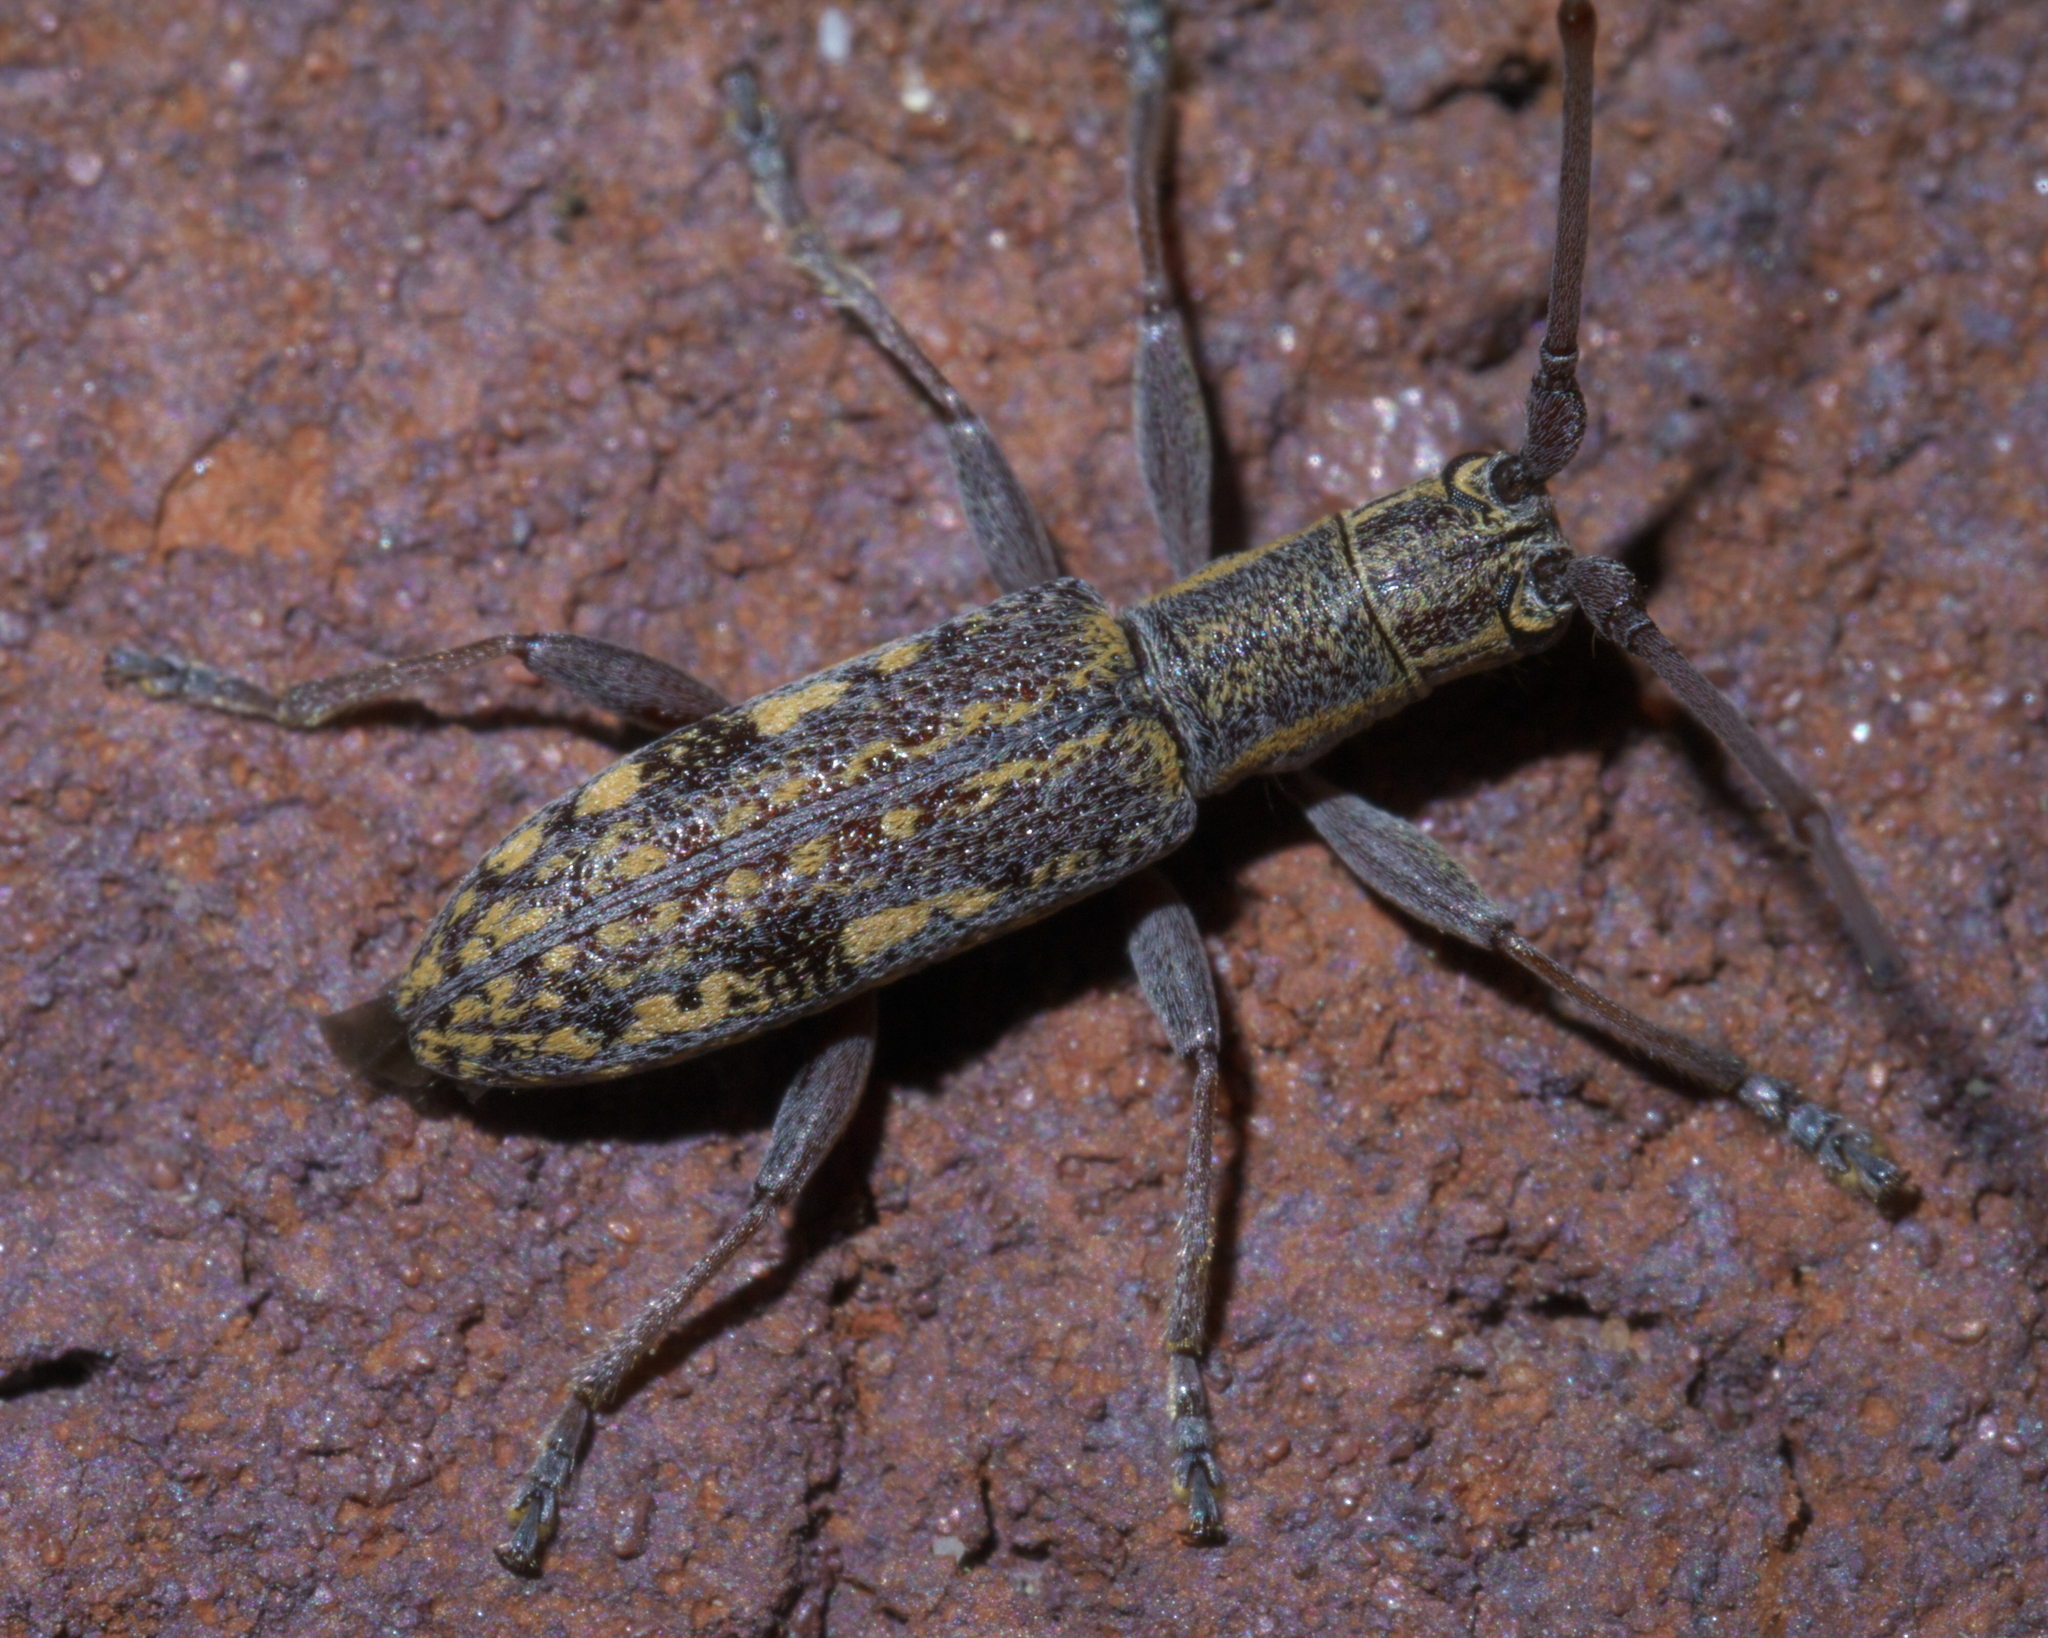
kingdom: Animalia
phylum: Arthropoda
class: Insecta
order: Coleoptera
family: Cerambycidae
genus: Dorcaschema
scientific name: Dorcaschema alternatum
